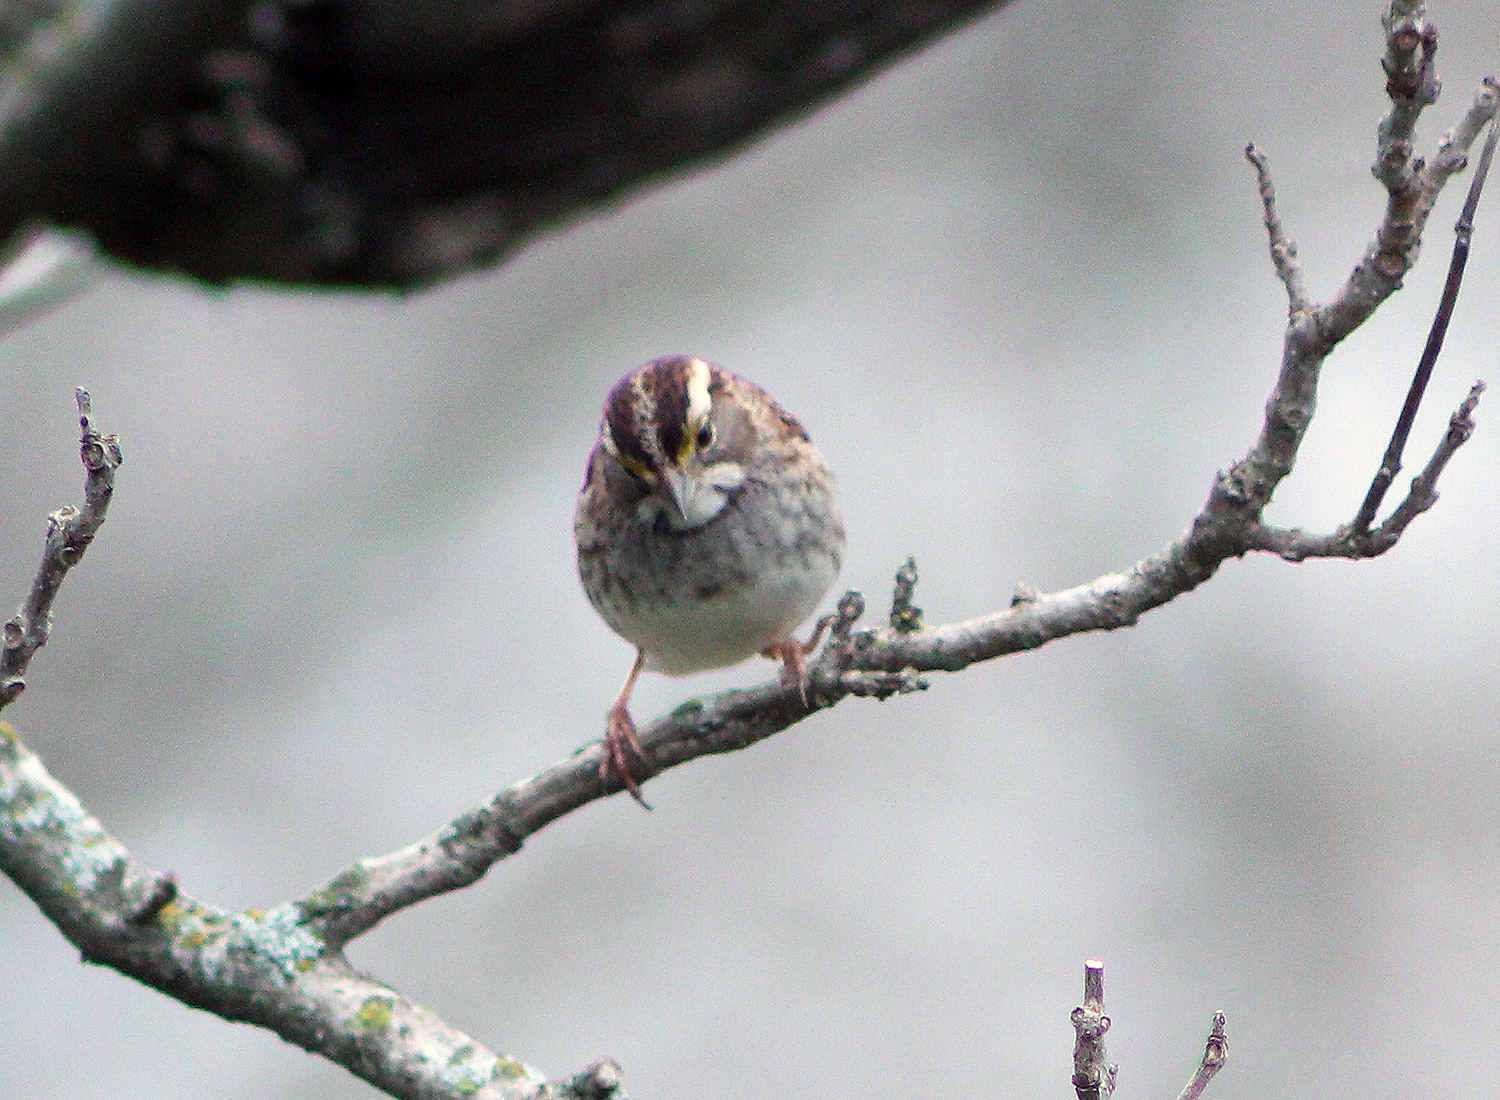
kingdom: Animalia
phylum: Chordata
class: Aves
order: Passeriformes
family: Passerellidae
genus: Zonotrichia
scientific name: Zonotrichia albicollis
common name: White-throated sparrow
